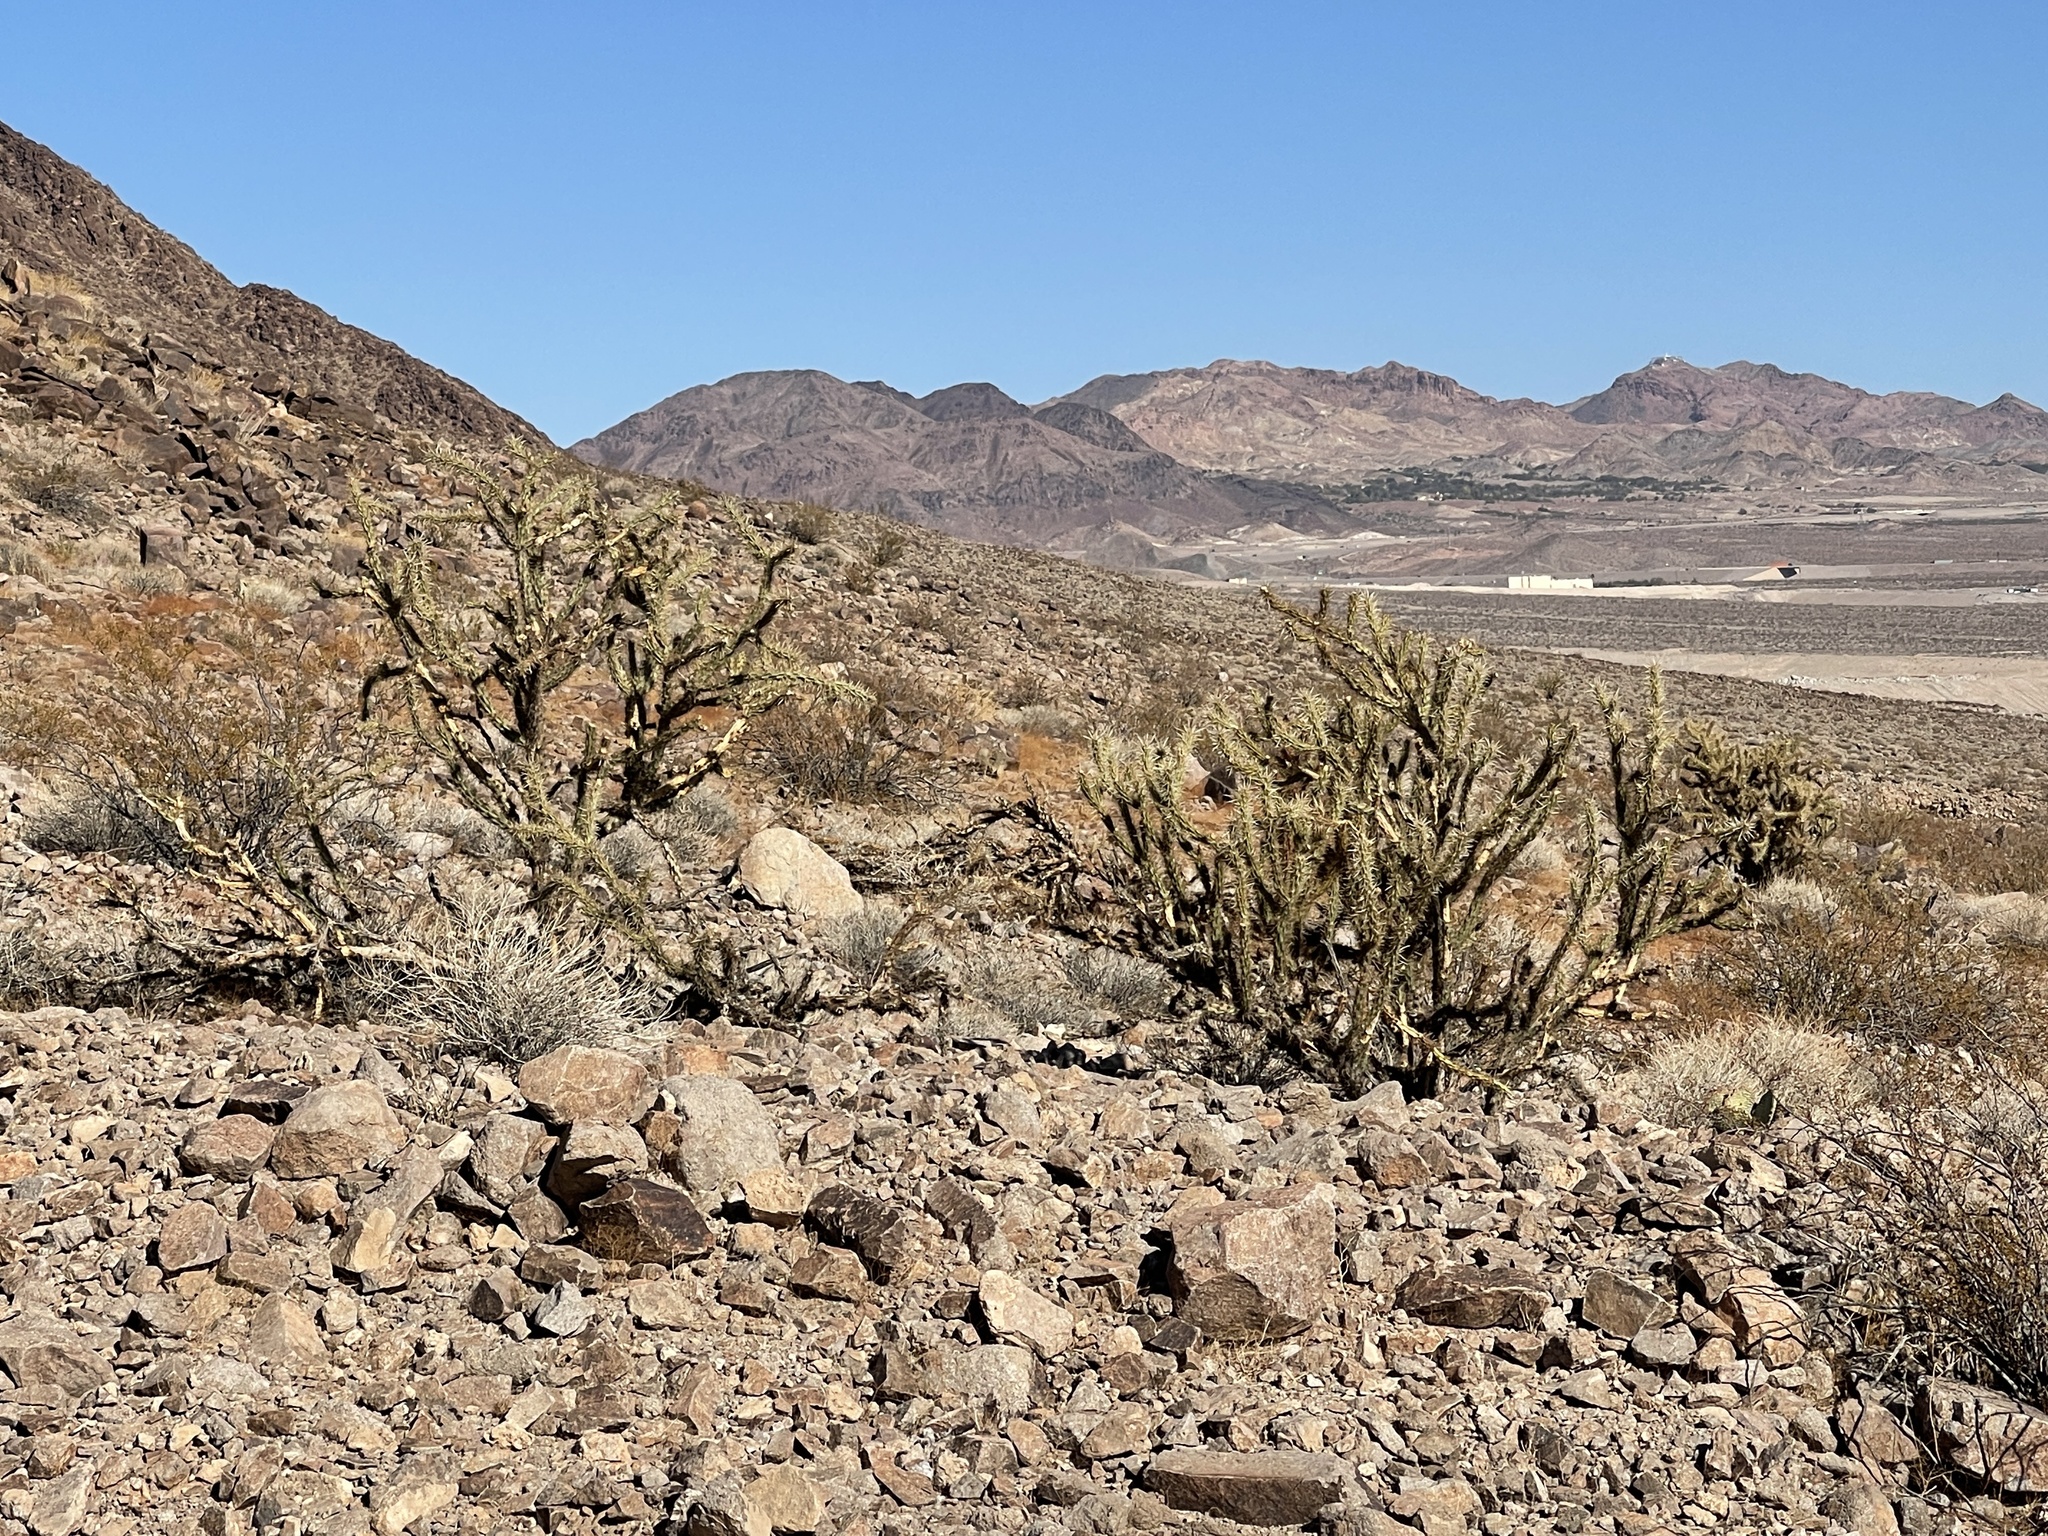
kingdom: Plantae
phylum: Tracheophyta
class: Magnoliopsida
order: Caryophyllales
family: Cactaceae
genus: Cylindropuntia
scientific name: Cylindropuntia acanthocarpa
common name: Buckhorn cholla
